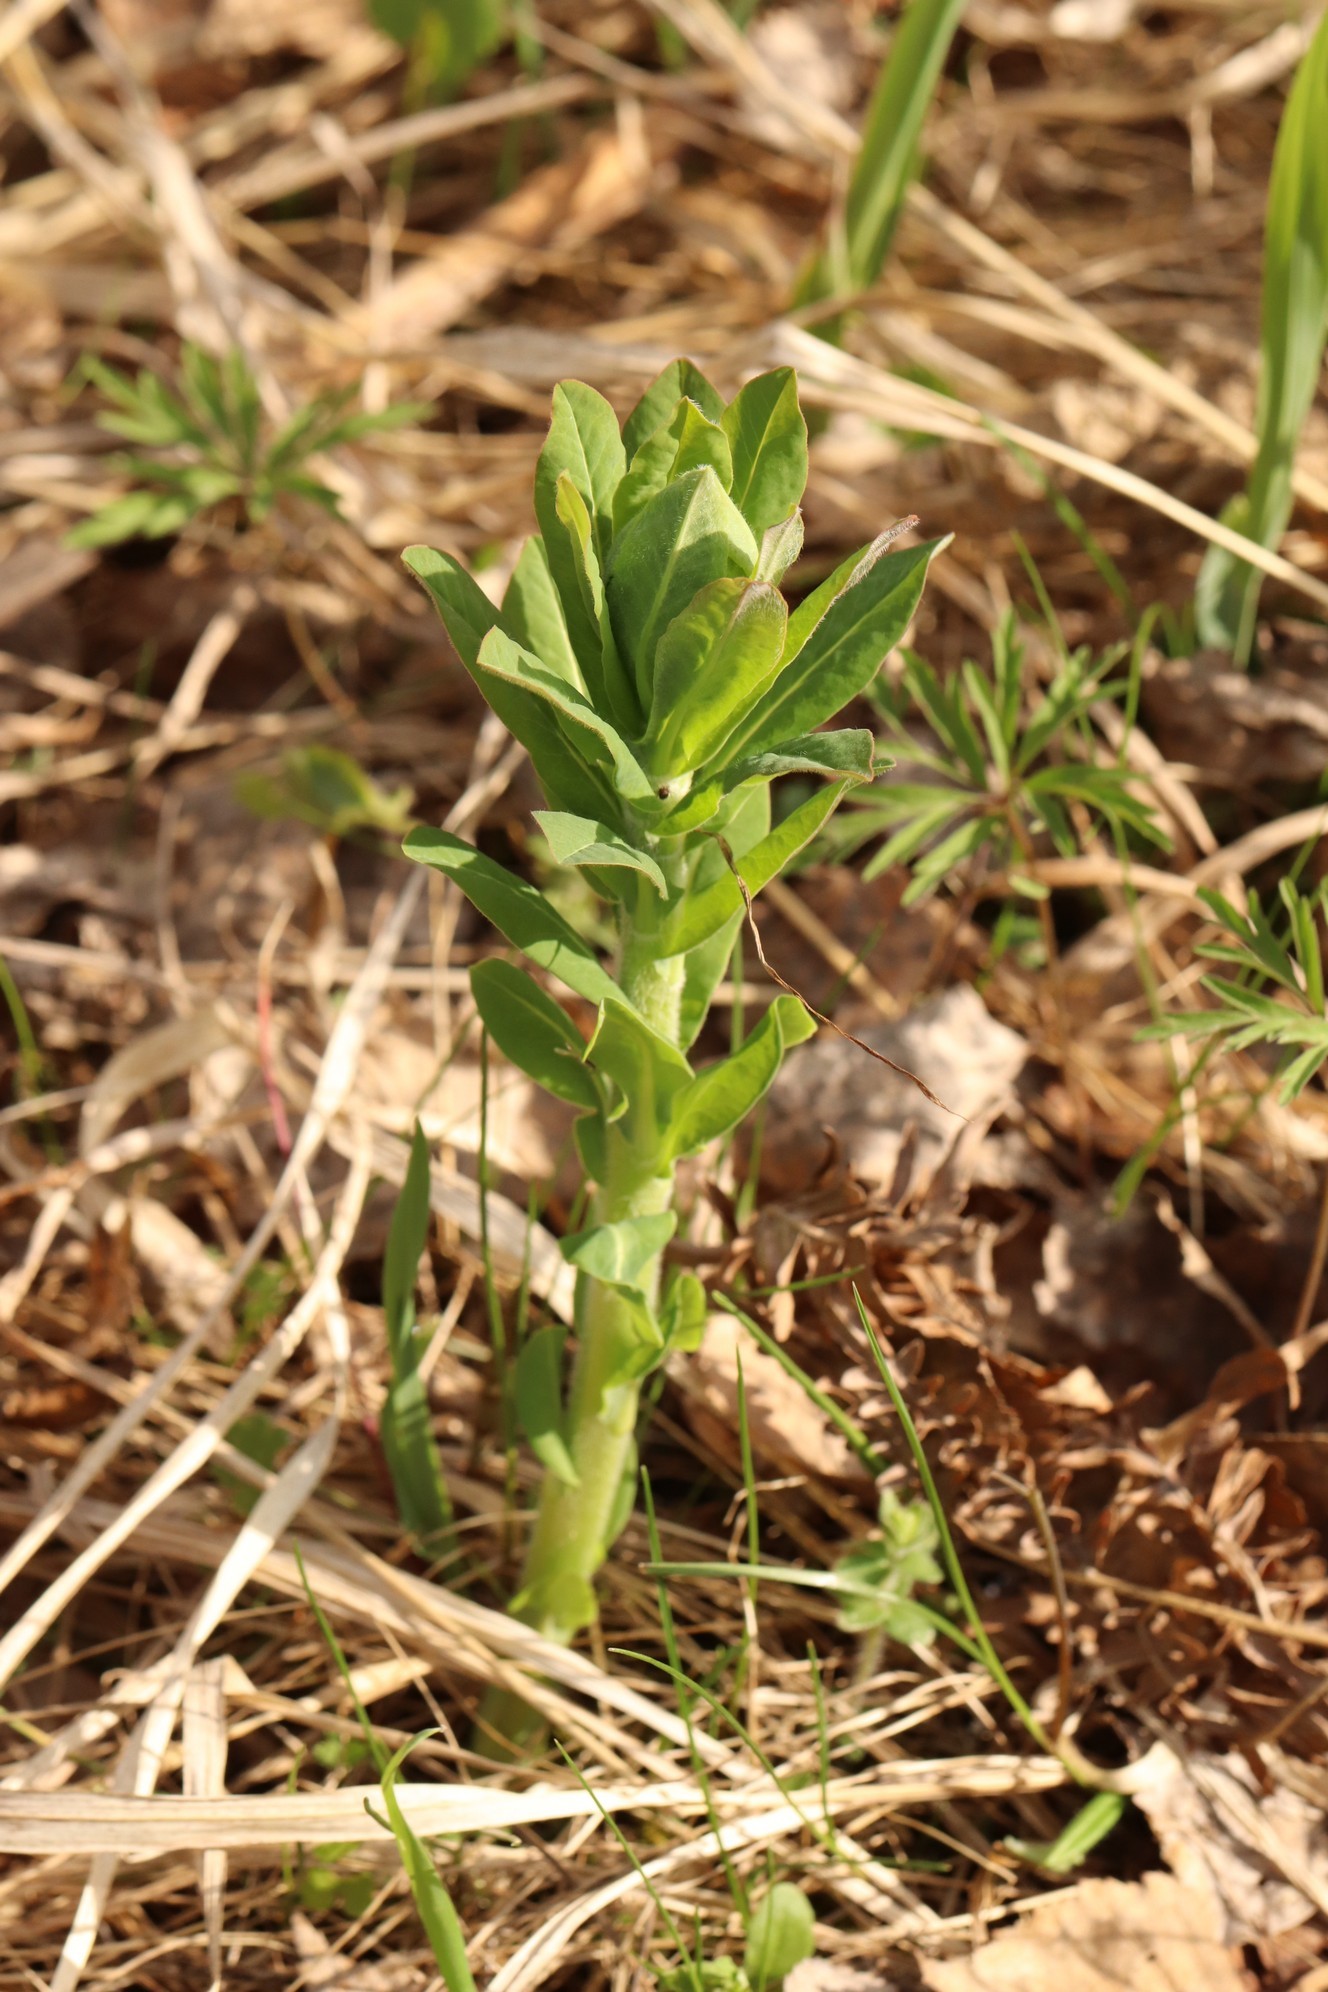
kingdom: Plantae
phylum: Tracheophyta
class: Magnoliopsida
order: Malpighiales
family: Euphorbiaceae
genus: Euphorbia
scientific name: Euphorbia pilosa
